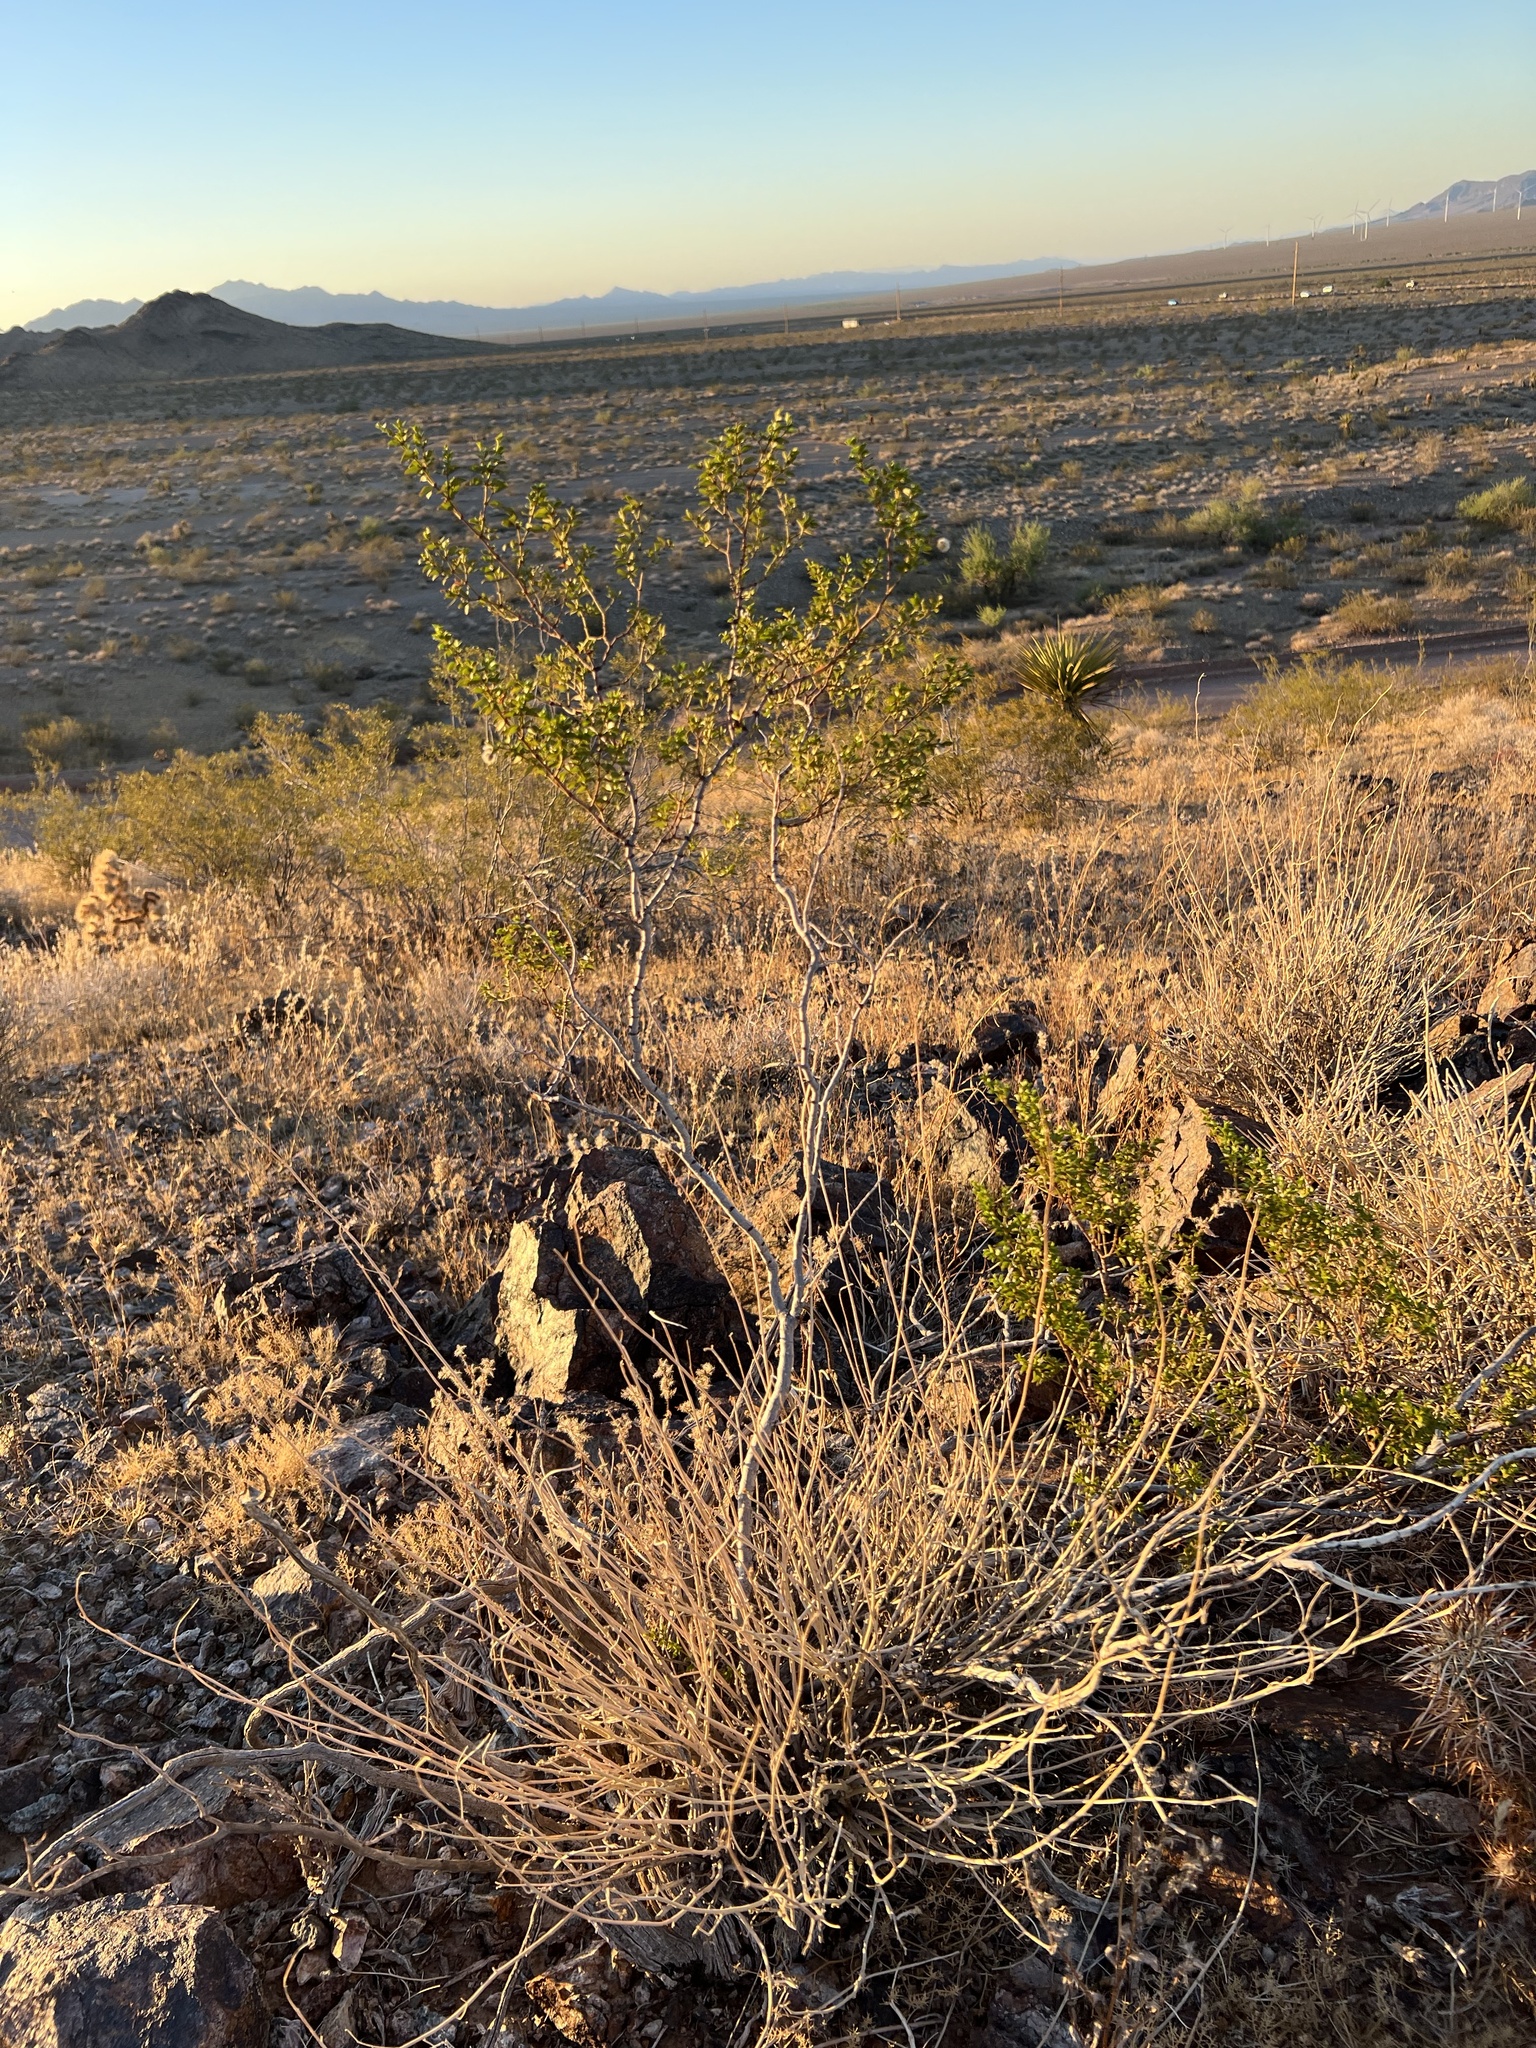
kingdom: Plantae
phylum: Tracheophyta
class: Magnoliopsida
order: Zygophyllales
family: Zygophyllaceae
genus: Larrea
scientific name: Larrea tridentata
